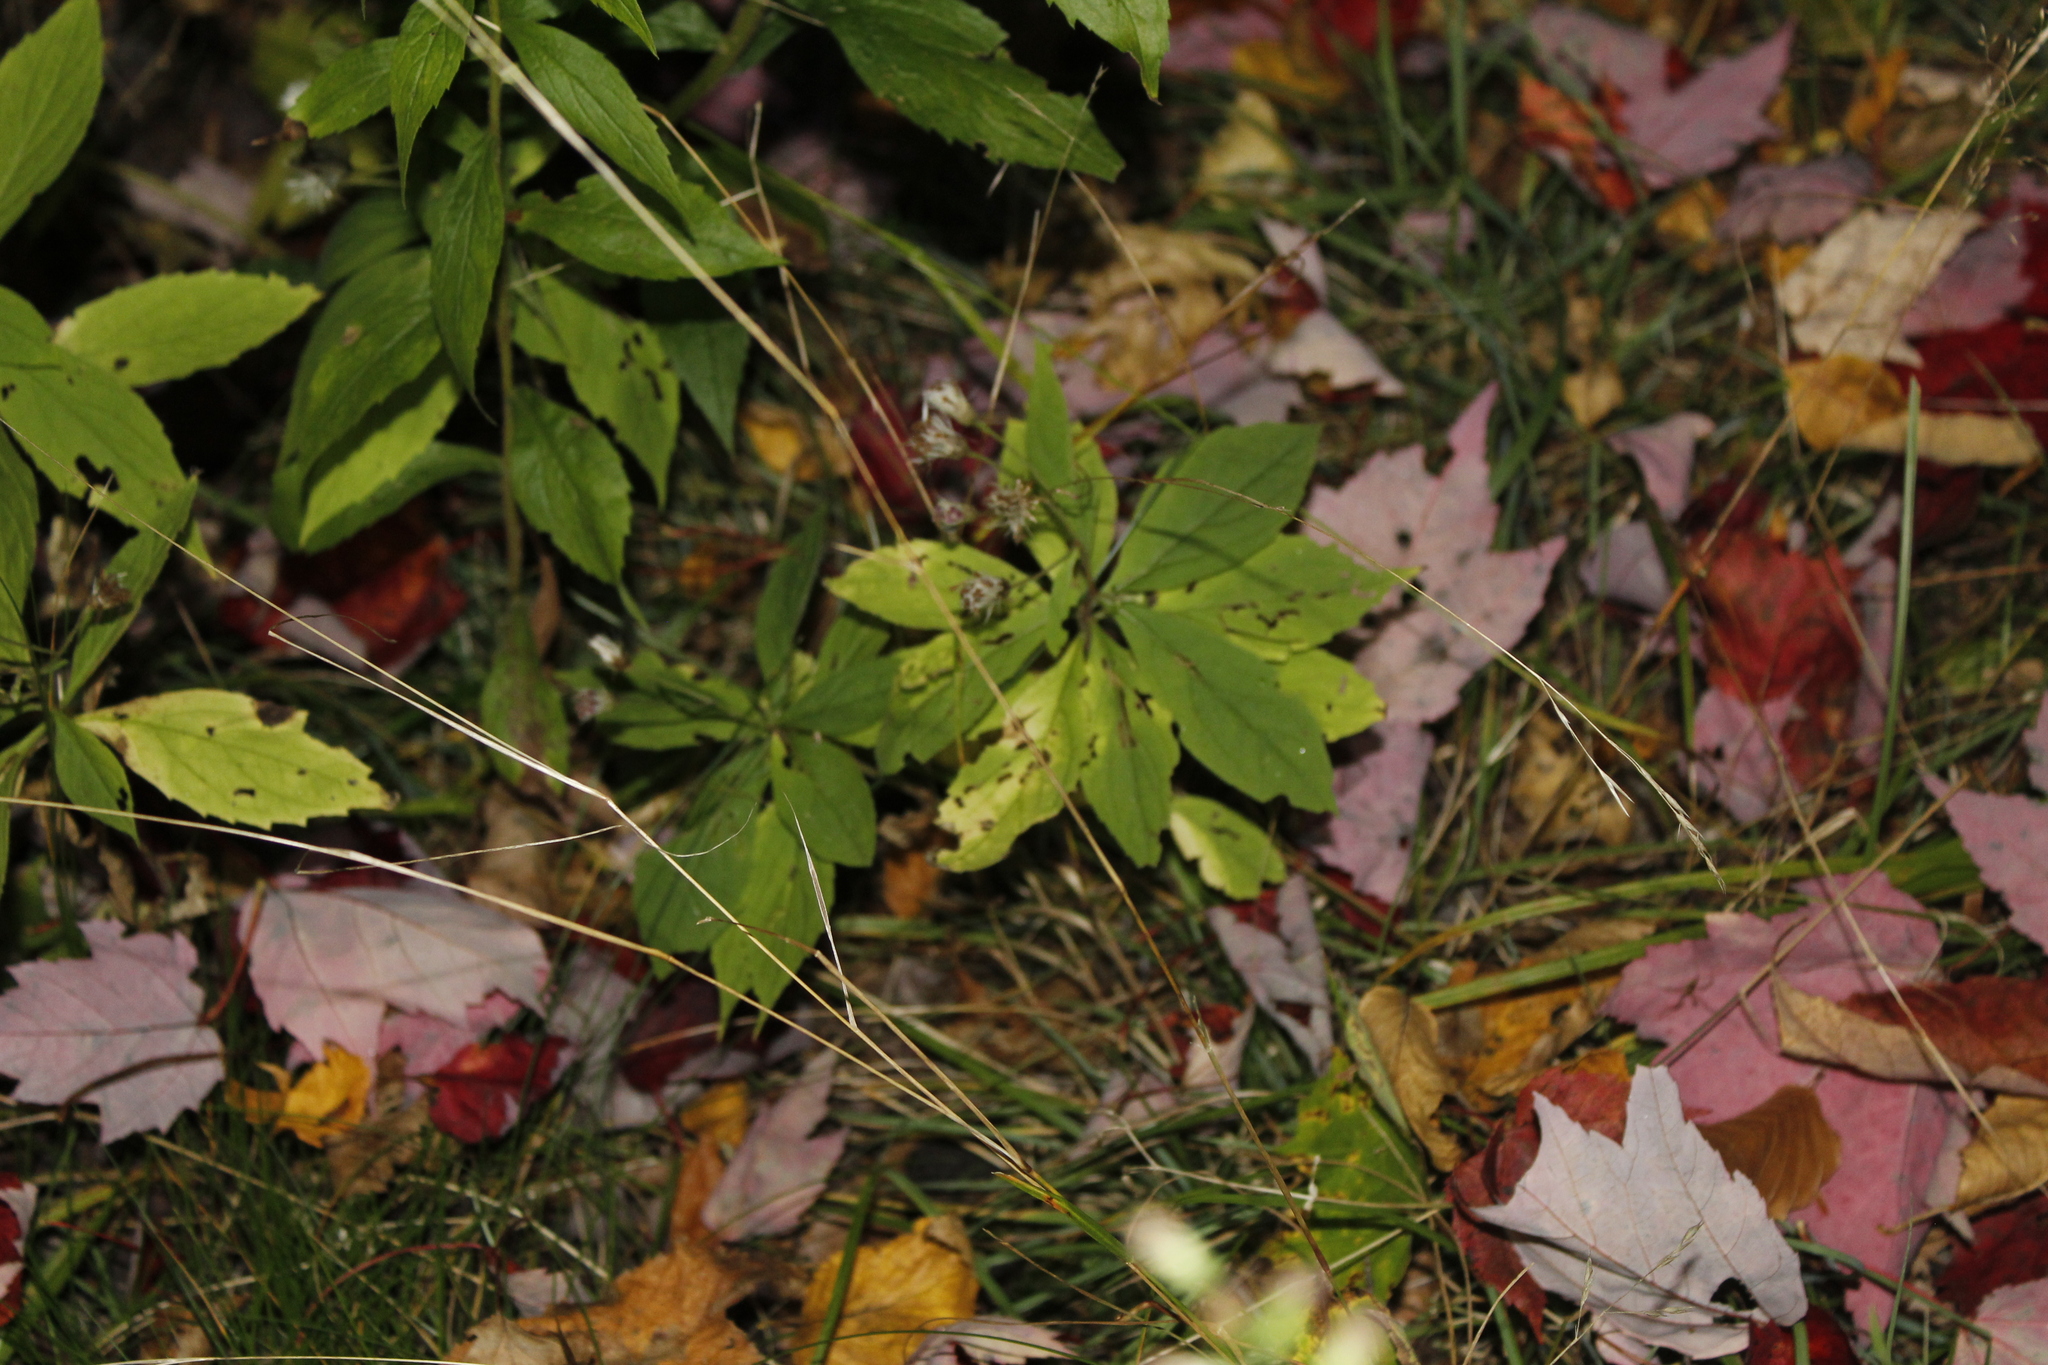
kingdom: Plantae
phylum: Tracheophyta
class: Magnoliopsida
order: Asterales
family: Asteraceae
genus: Oclemena
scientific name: Oclemena acuminata
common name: Mountain aster
